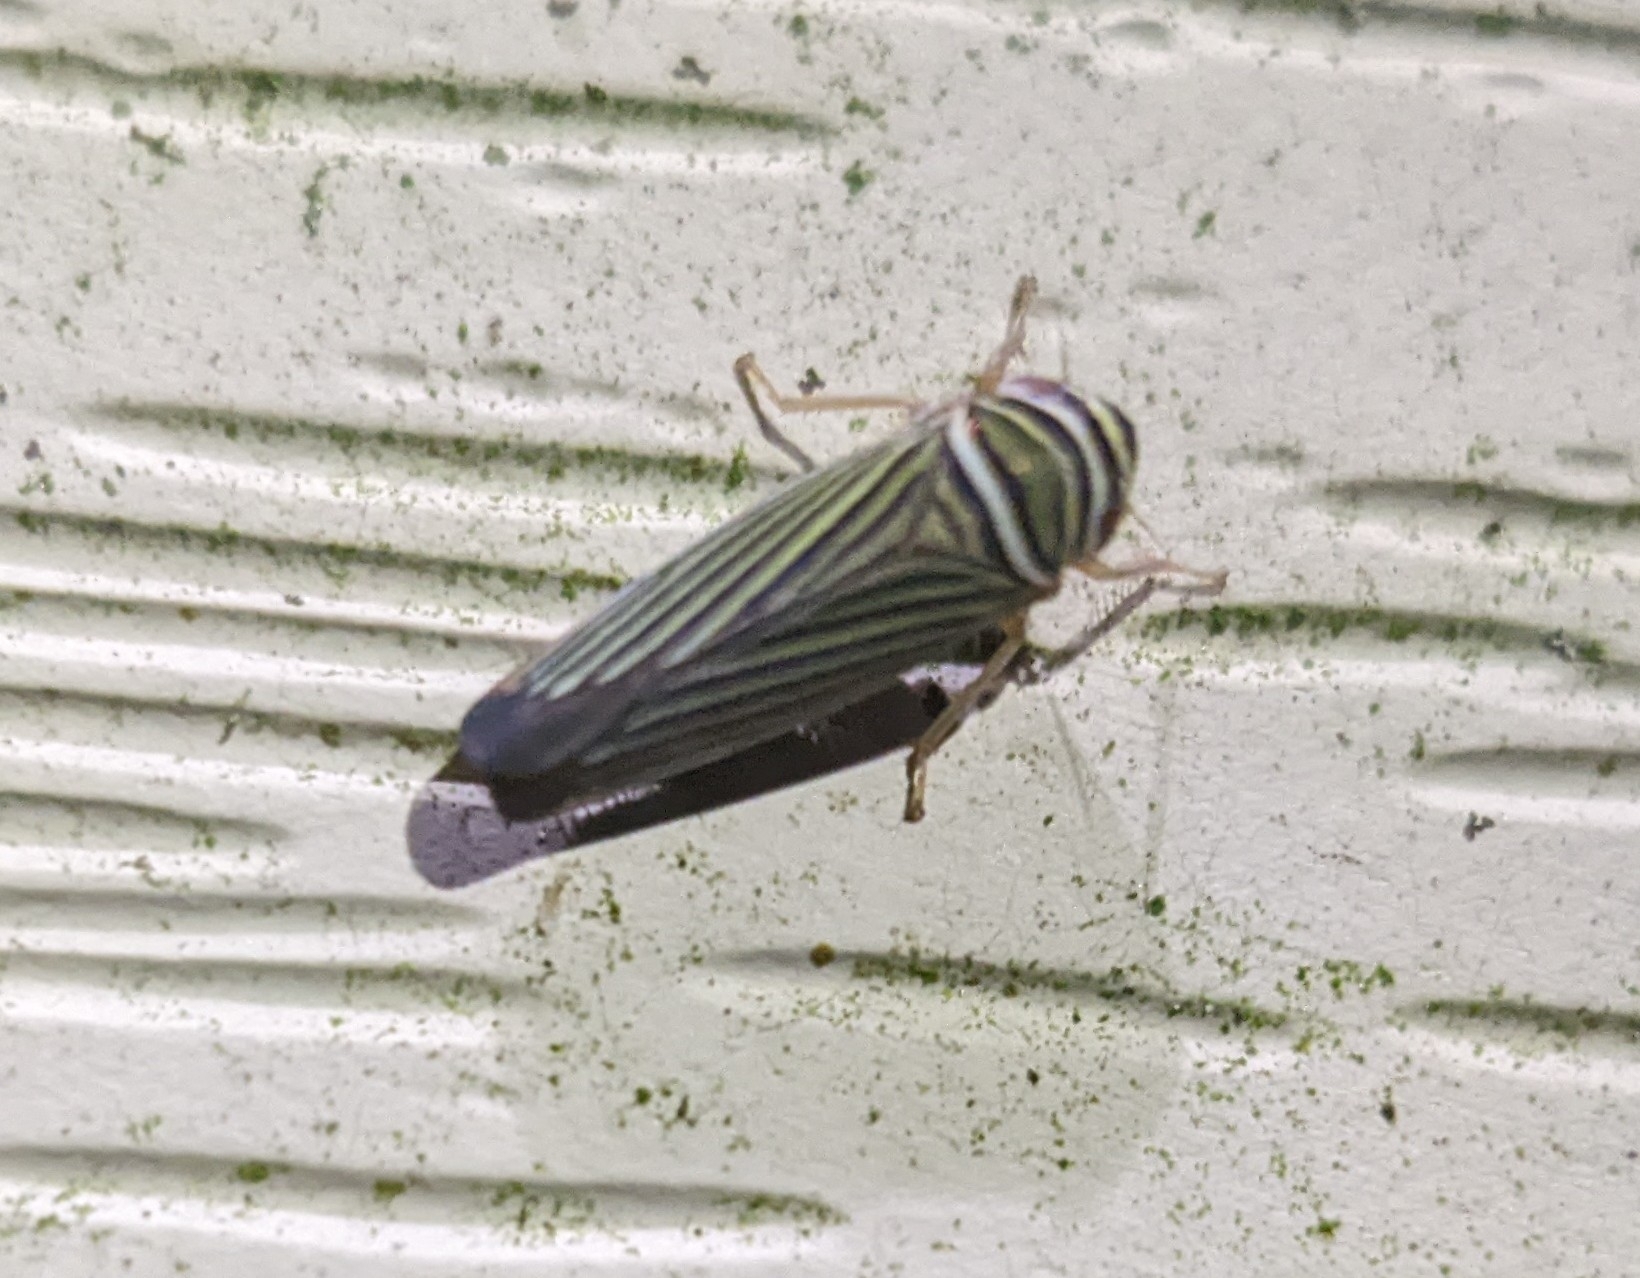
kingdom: Animalia
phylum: Arthropoda
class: Insecta
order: Hemiptera
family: Cicadellidae
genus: Tylozygus
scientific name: Tylozygus bifidus
